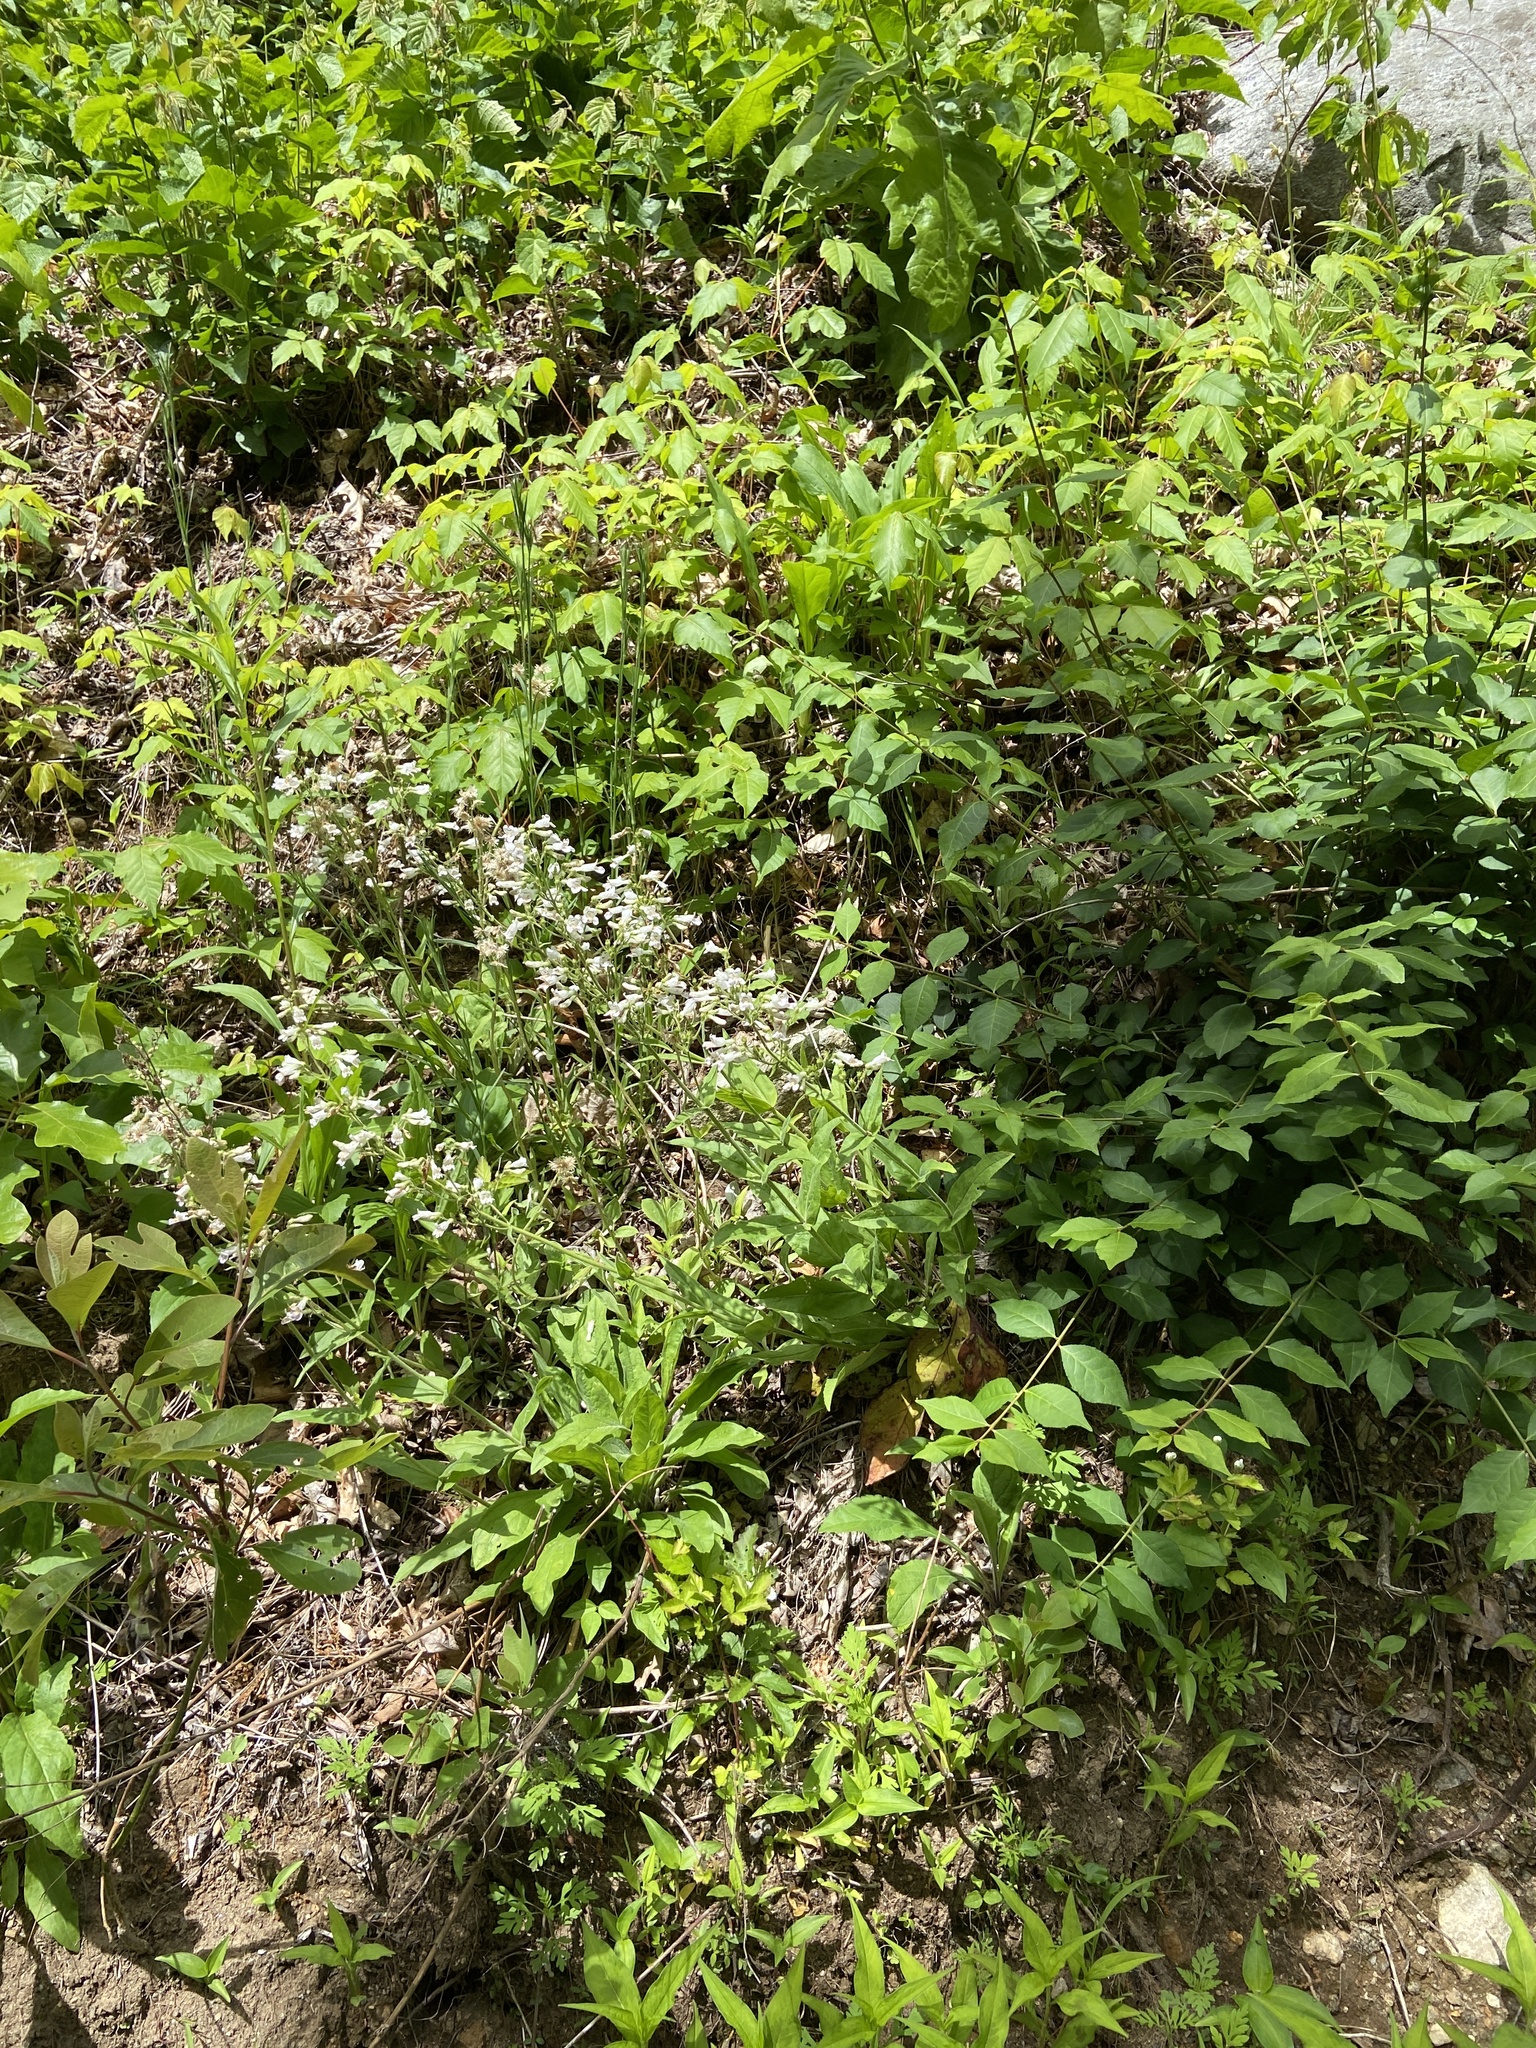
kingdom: Plantae
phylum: Tracheophyta
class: Magnoliopsida
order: Lamiales
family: Plantaginaceae
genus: Penstemon
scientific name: Penstemon digitalis
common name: Foxglove beardtongue
